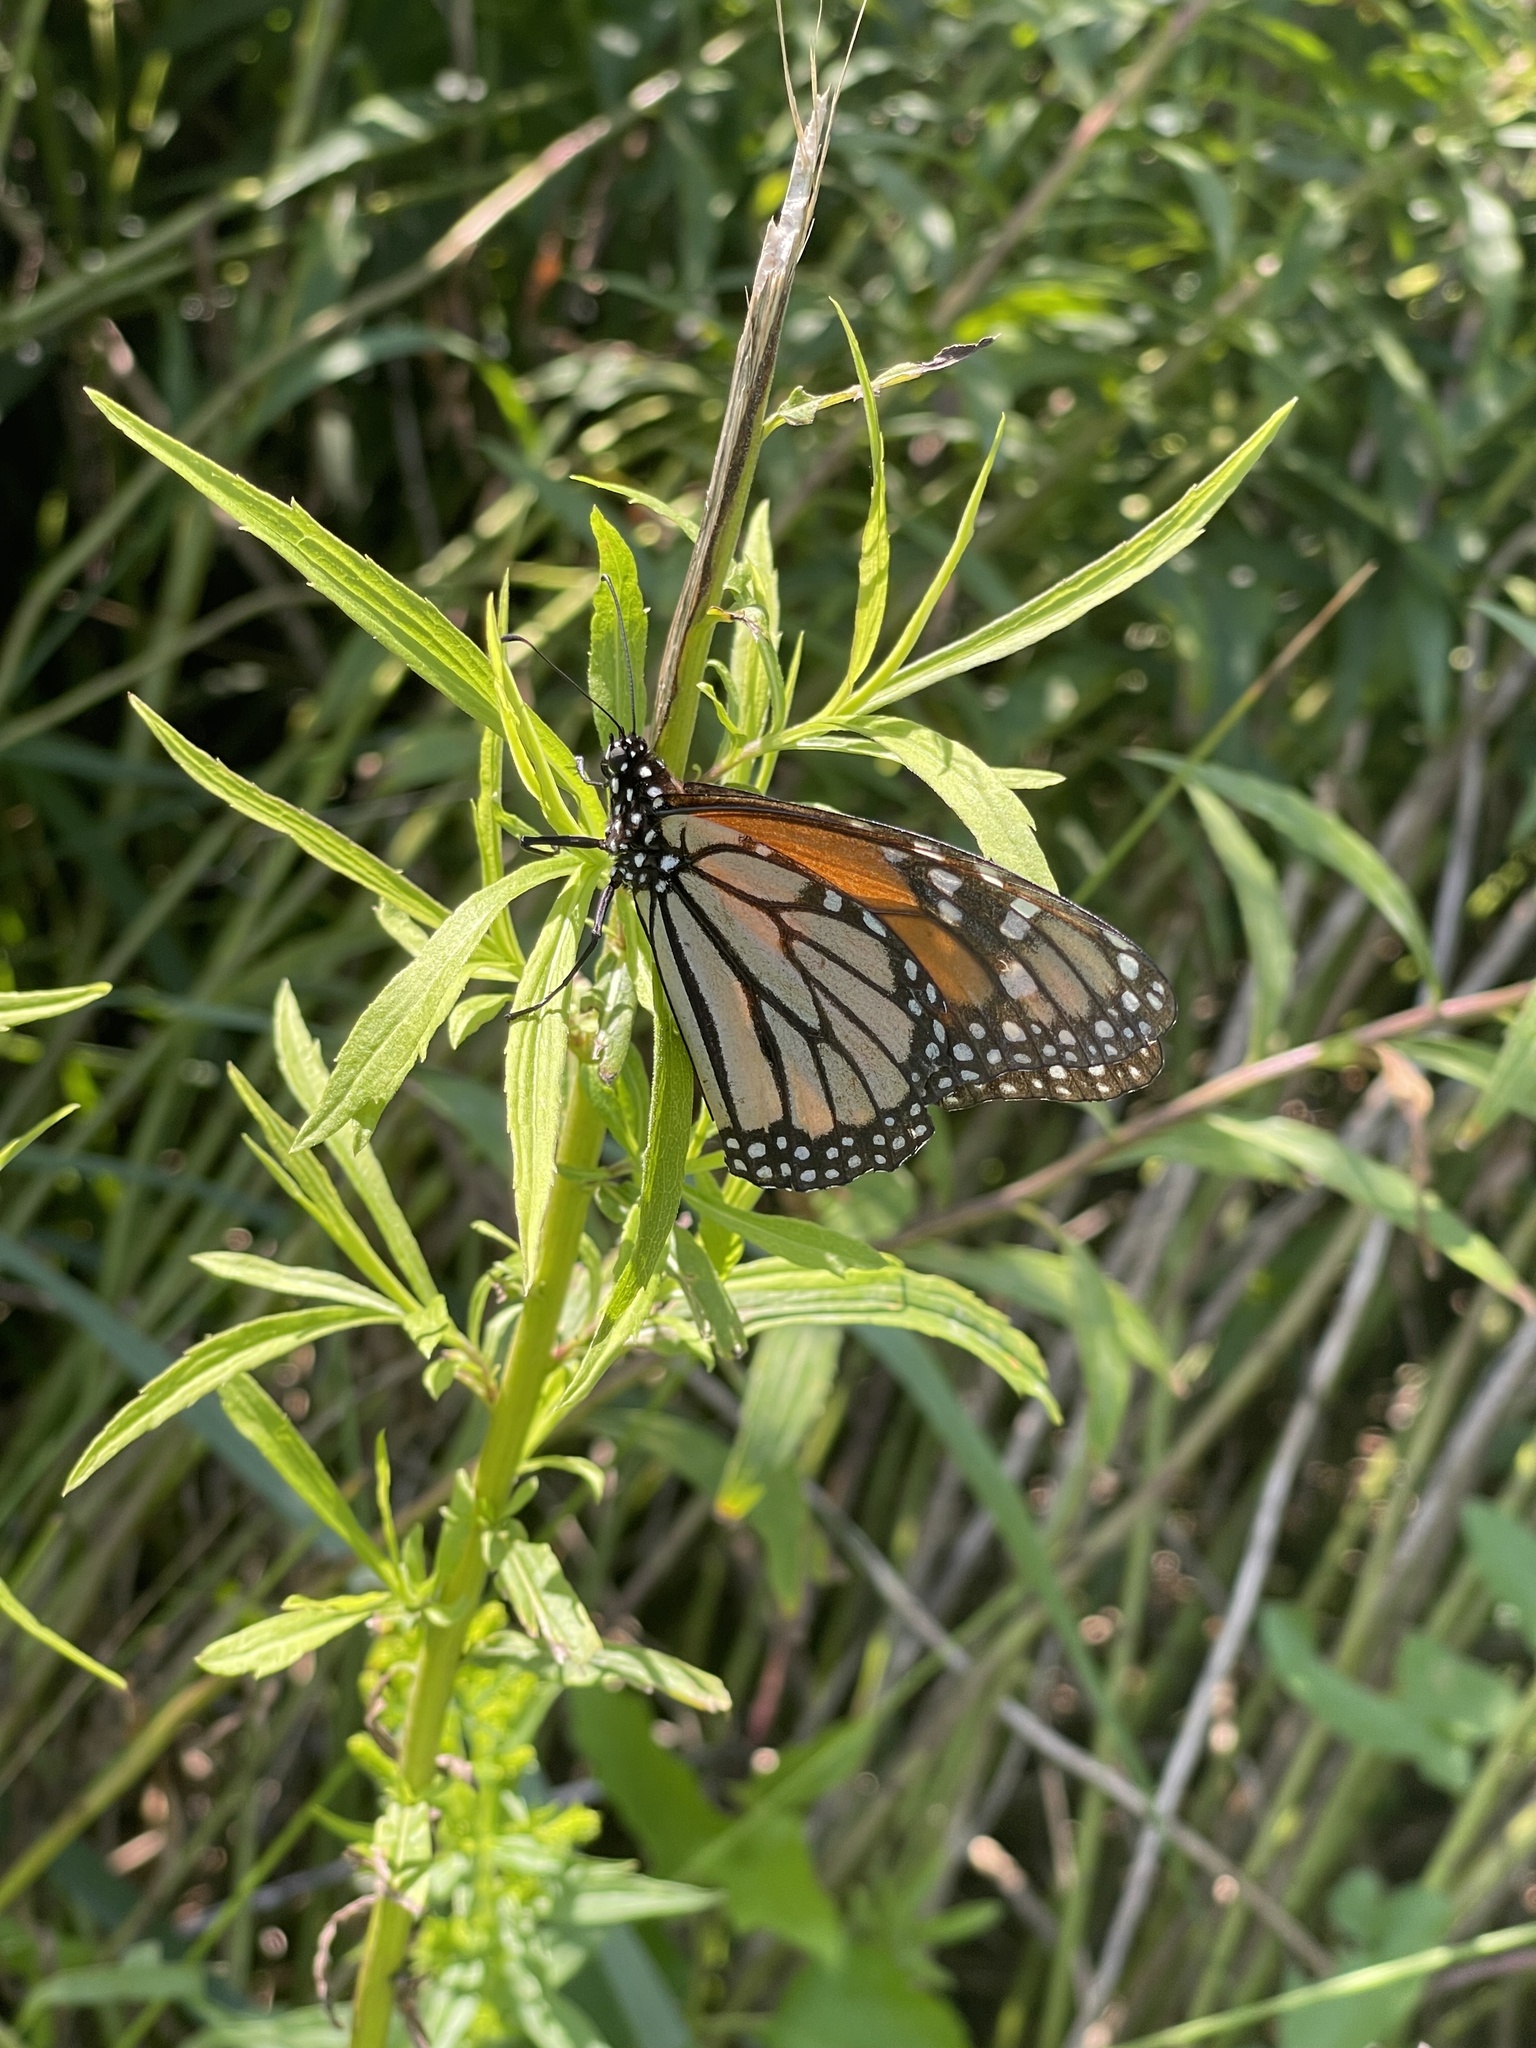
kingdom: Animalia
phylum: Arthropoda
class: Insecta
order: Lepidoptera
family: Nymphalidae
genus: Danaus
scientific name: Danaus plexippus
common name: Monarch
